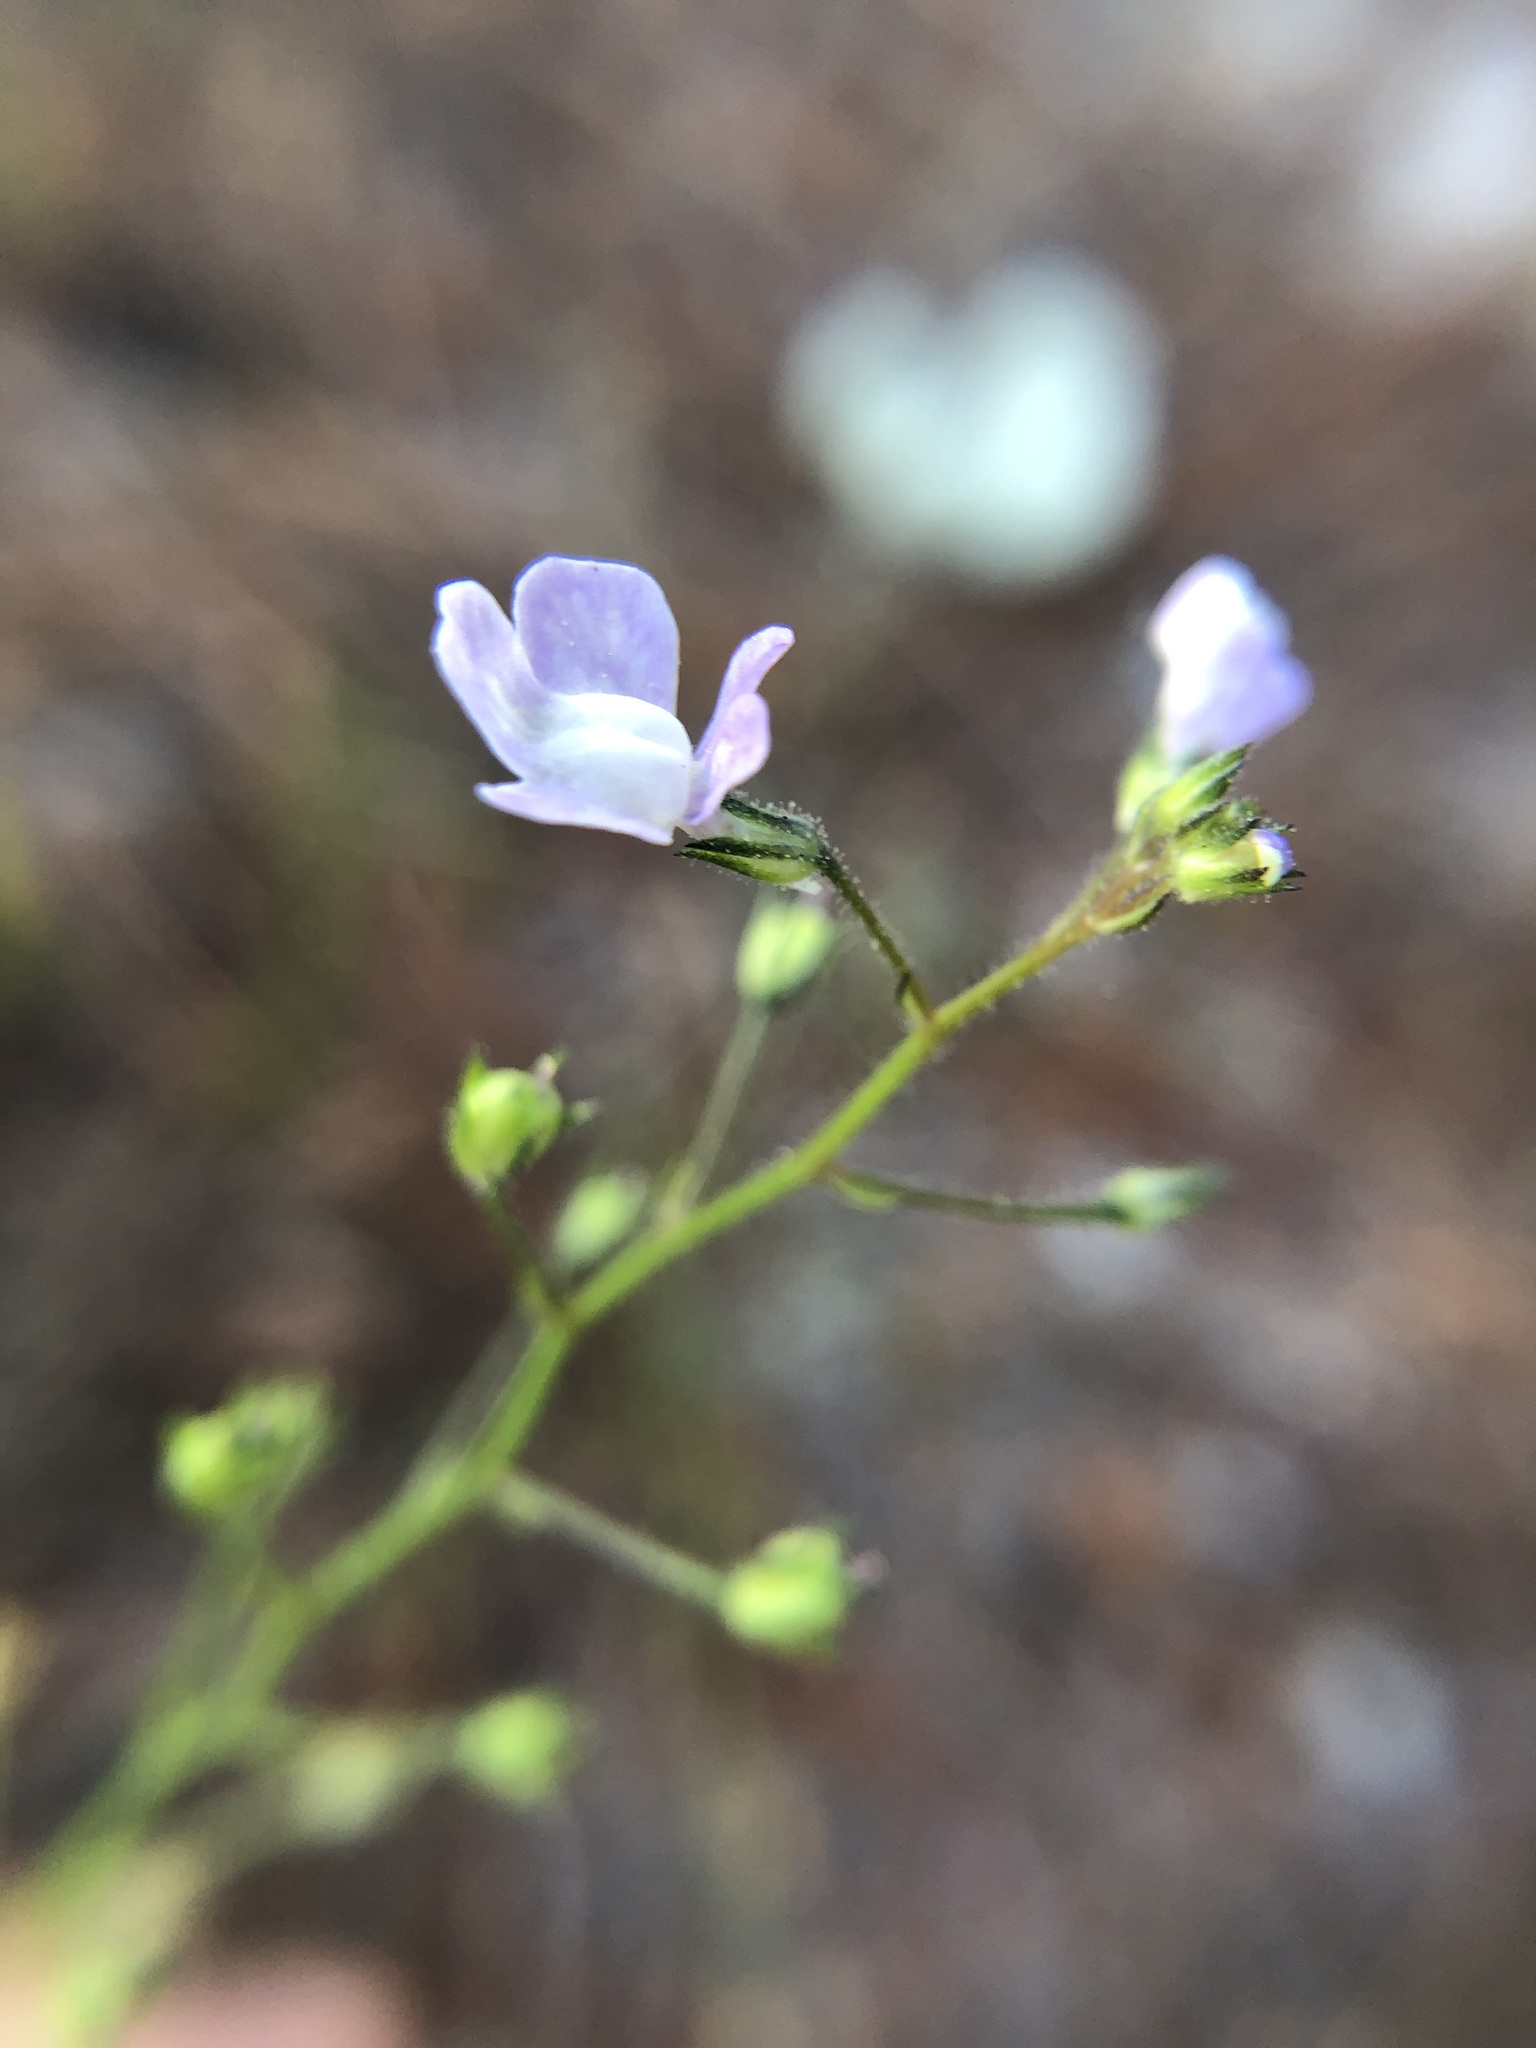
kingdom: Plantae
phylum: Tracheophyta
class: Magnoliopsida
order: Lamiales
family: Plantaginaceae
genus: Nuttallanthus
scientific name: Nuttallanthus floridanus
